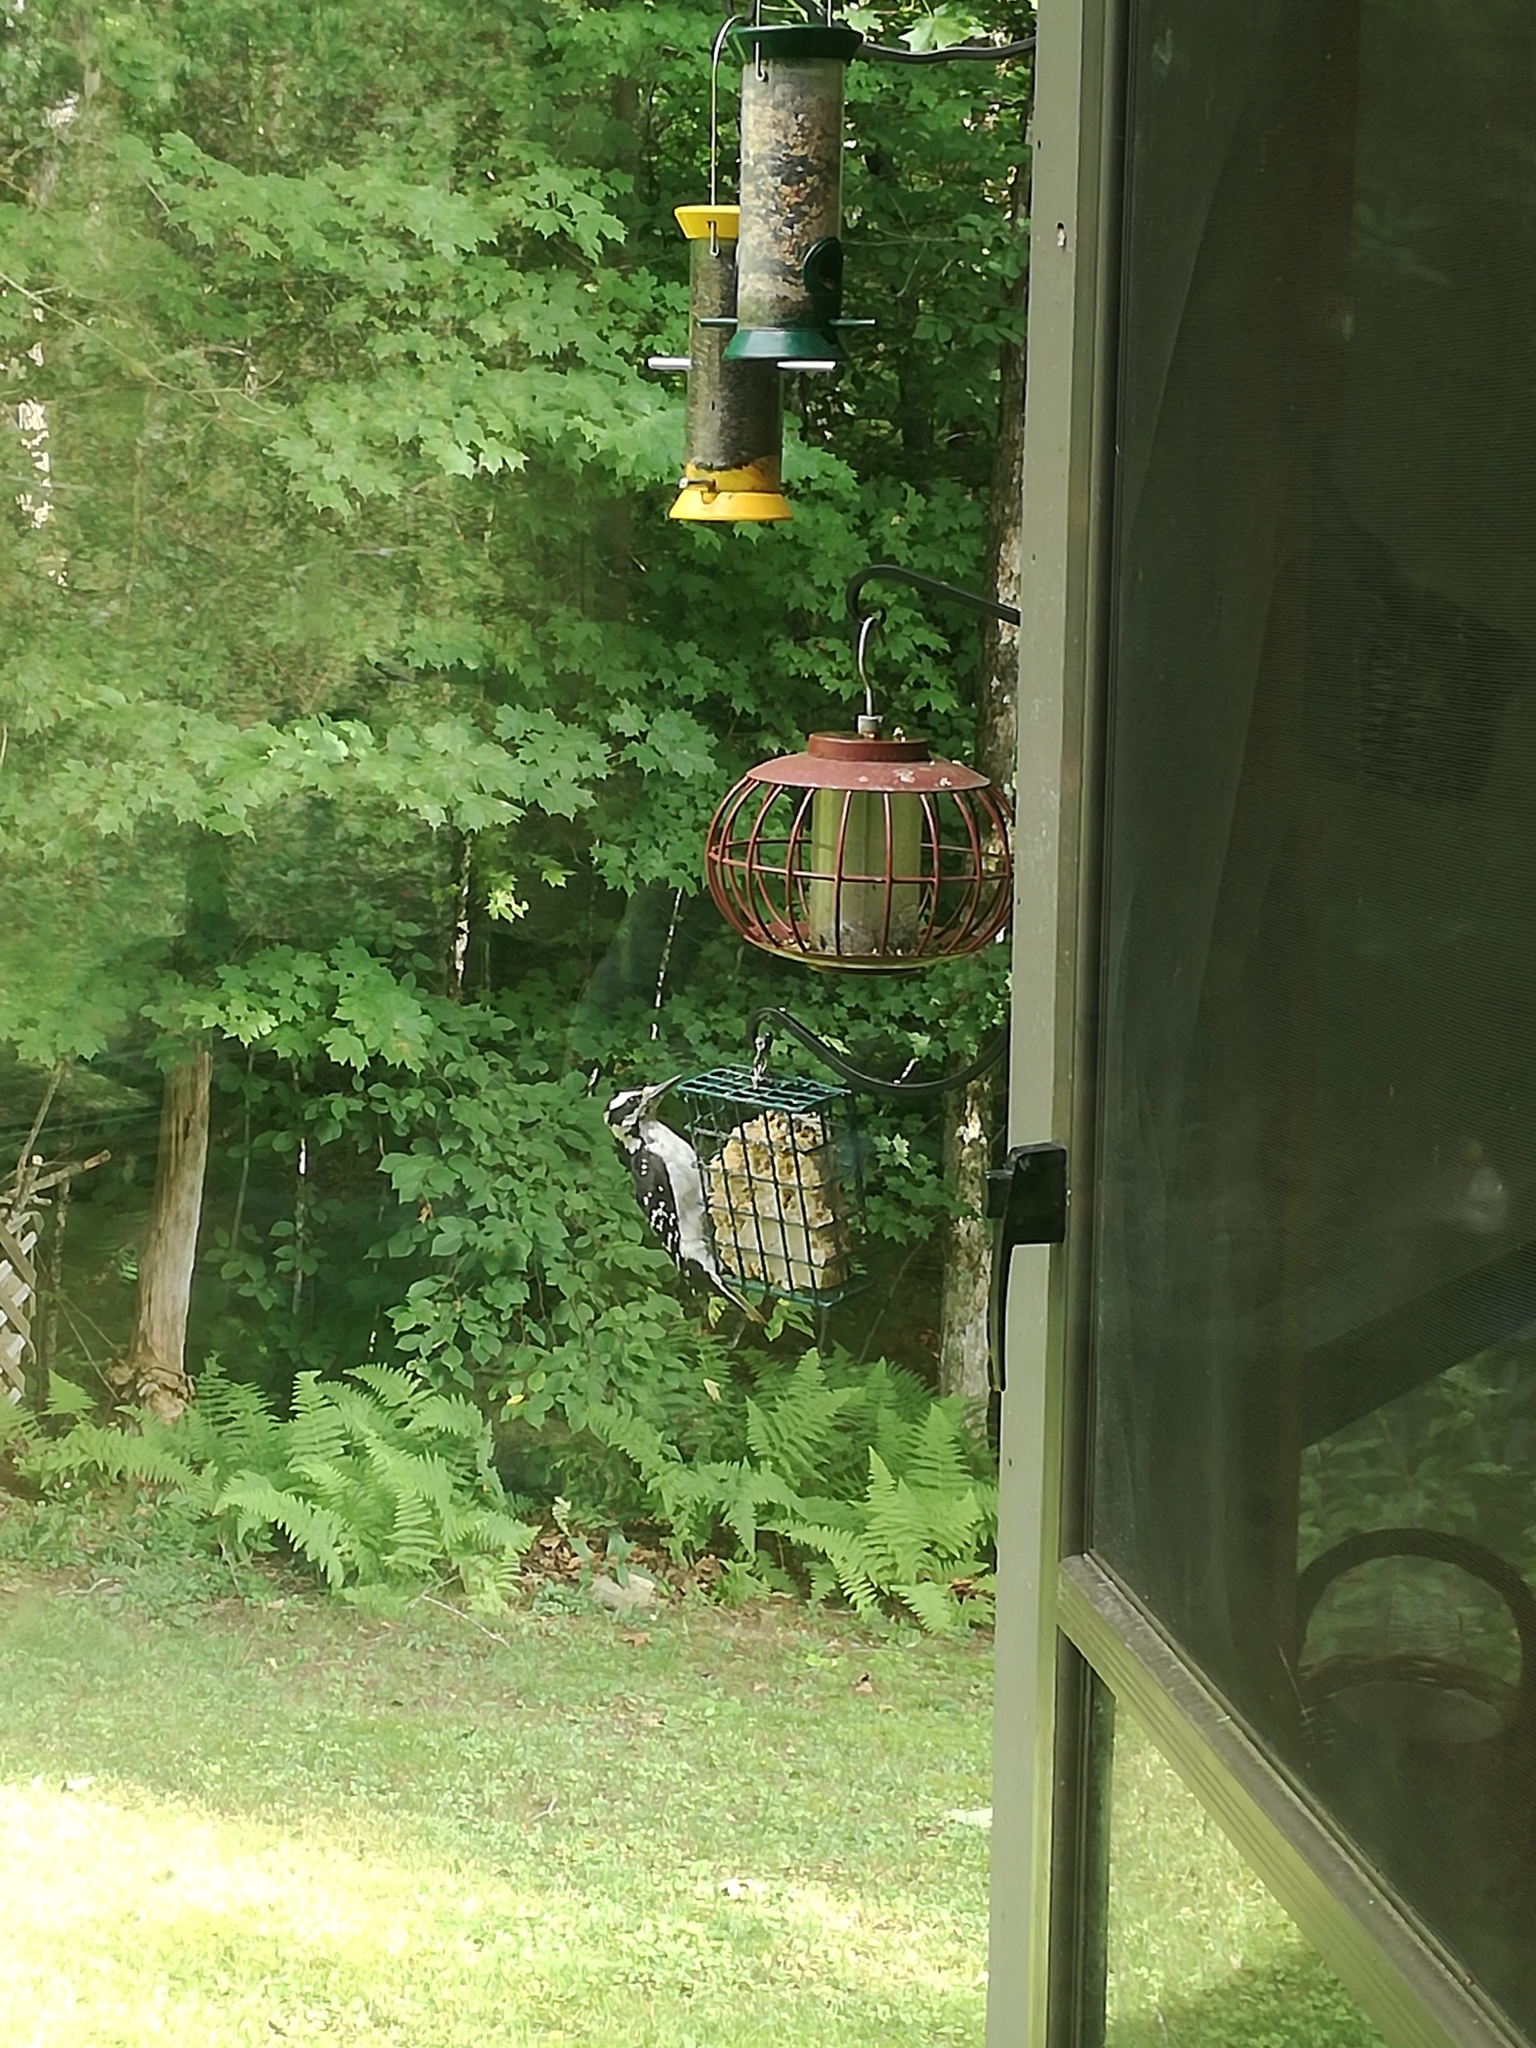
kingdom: Animalia
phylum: Chordata
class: Aves
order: Piciformes
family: Picidae
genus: Leuconotopicus
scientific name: Leuconotopicus villosus
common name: Hairy woodpecker
